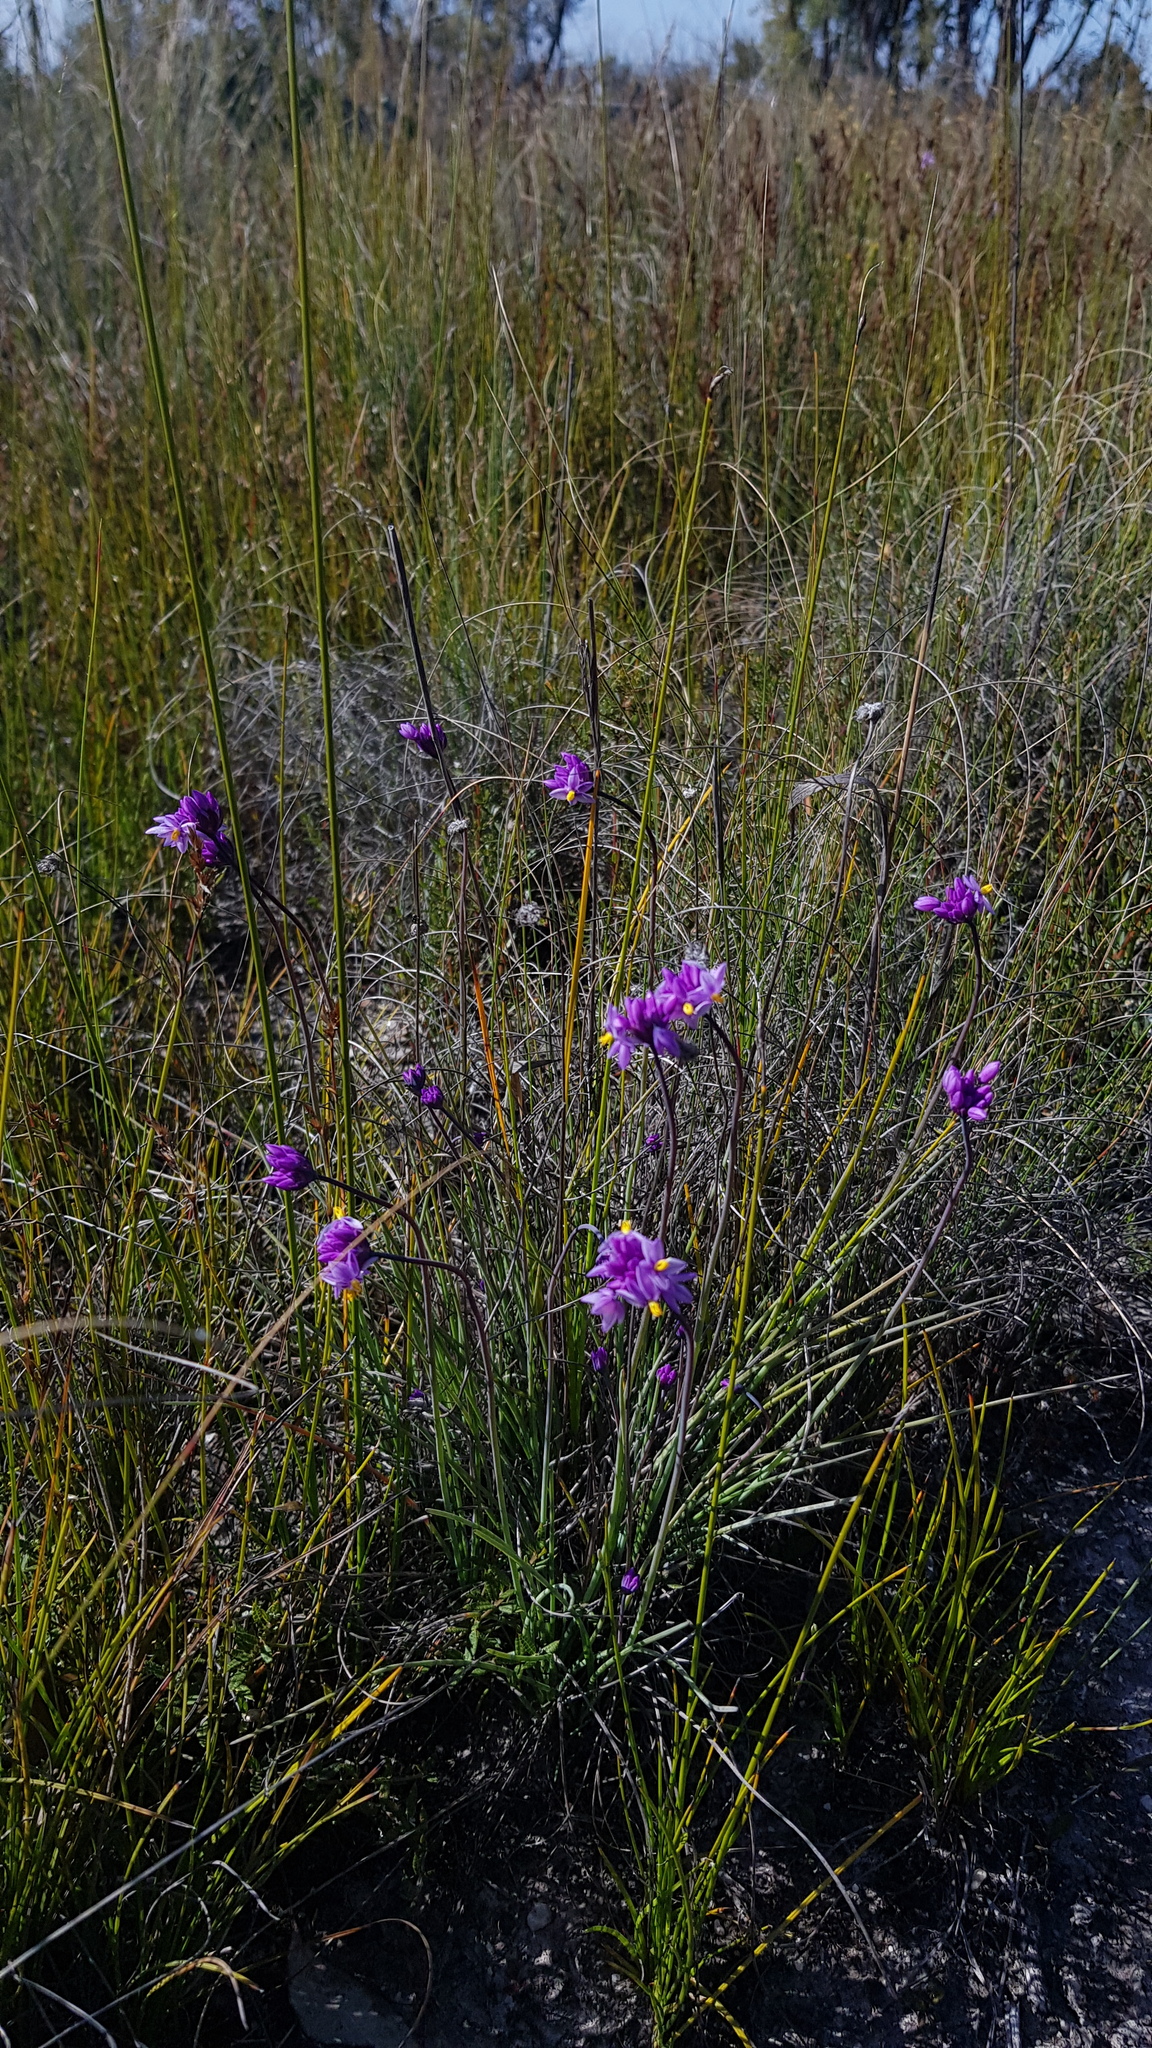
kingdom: Plantae
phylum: Tracheophyta
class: Liliopsida
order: Asparagales
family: Asparagaceae
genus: Sowerbaea
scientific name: Sowerbaea juncea
